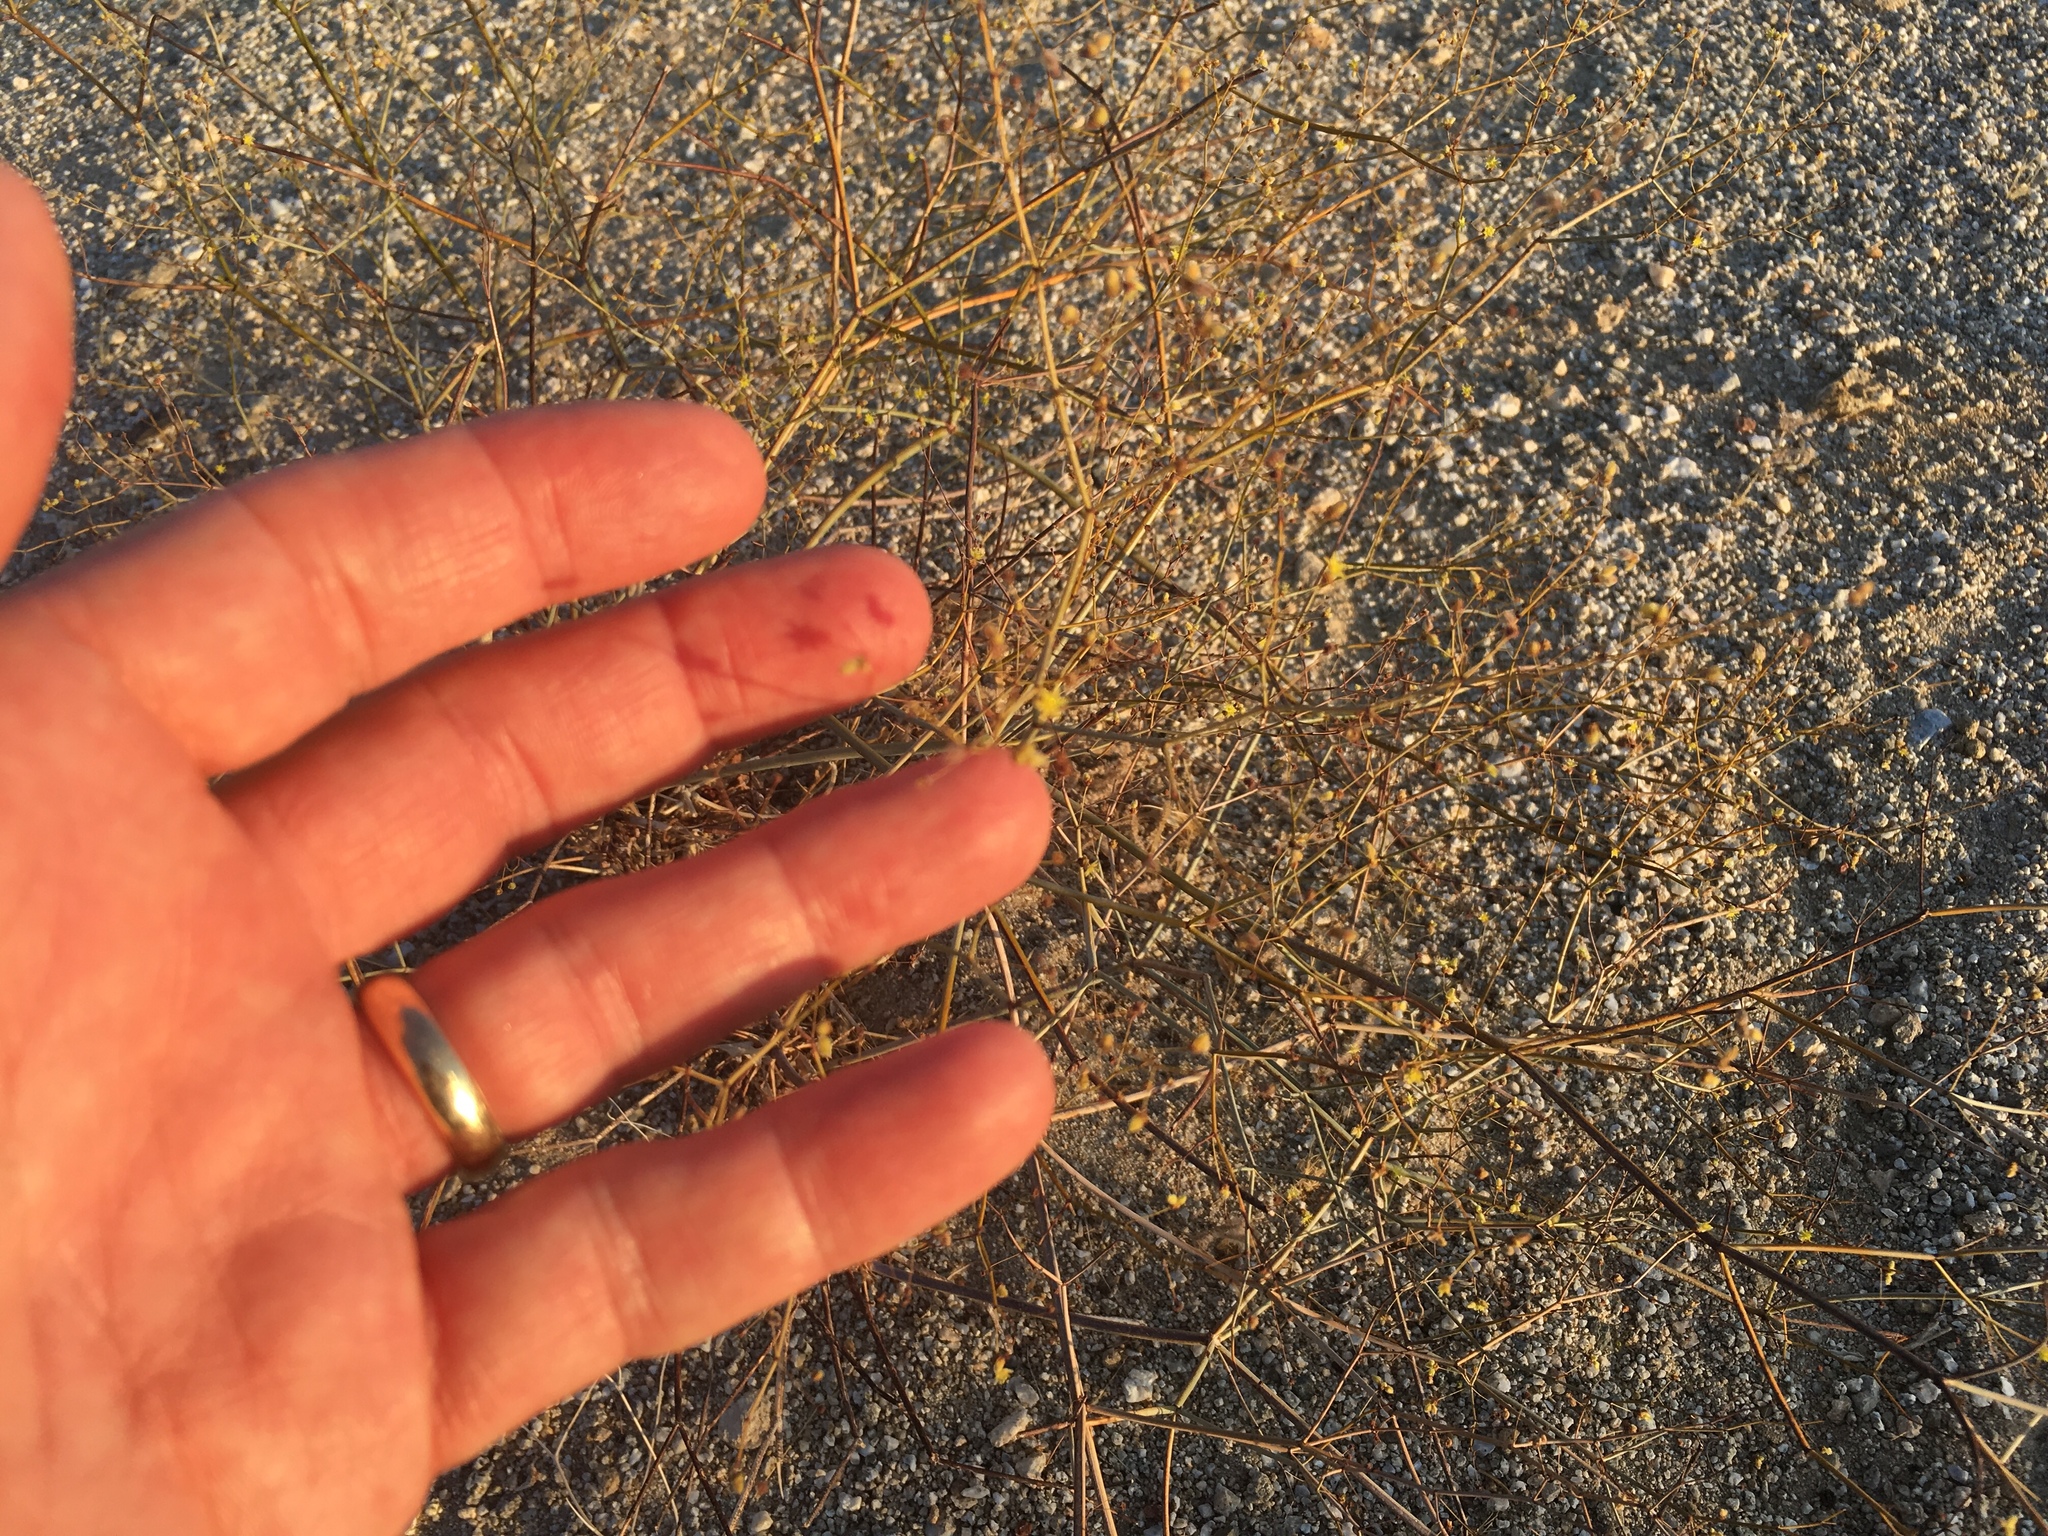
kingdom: Plantae
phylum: Tracheophyta
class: Magnoliopsida
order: Caryophyllales
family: Polygonaceae
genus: Eriogonum
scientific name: Eriogonum inflatum
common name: Desert trumpet
